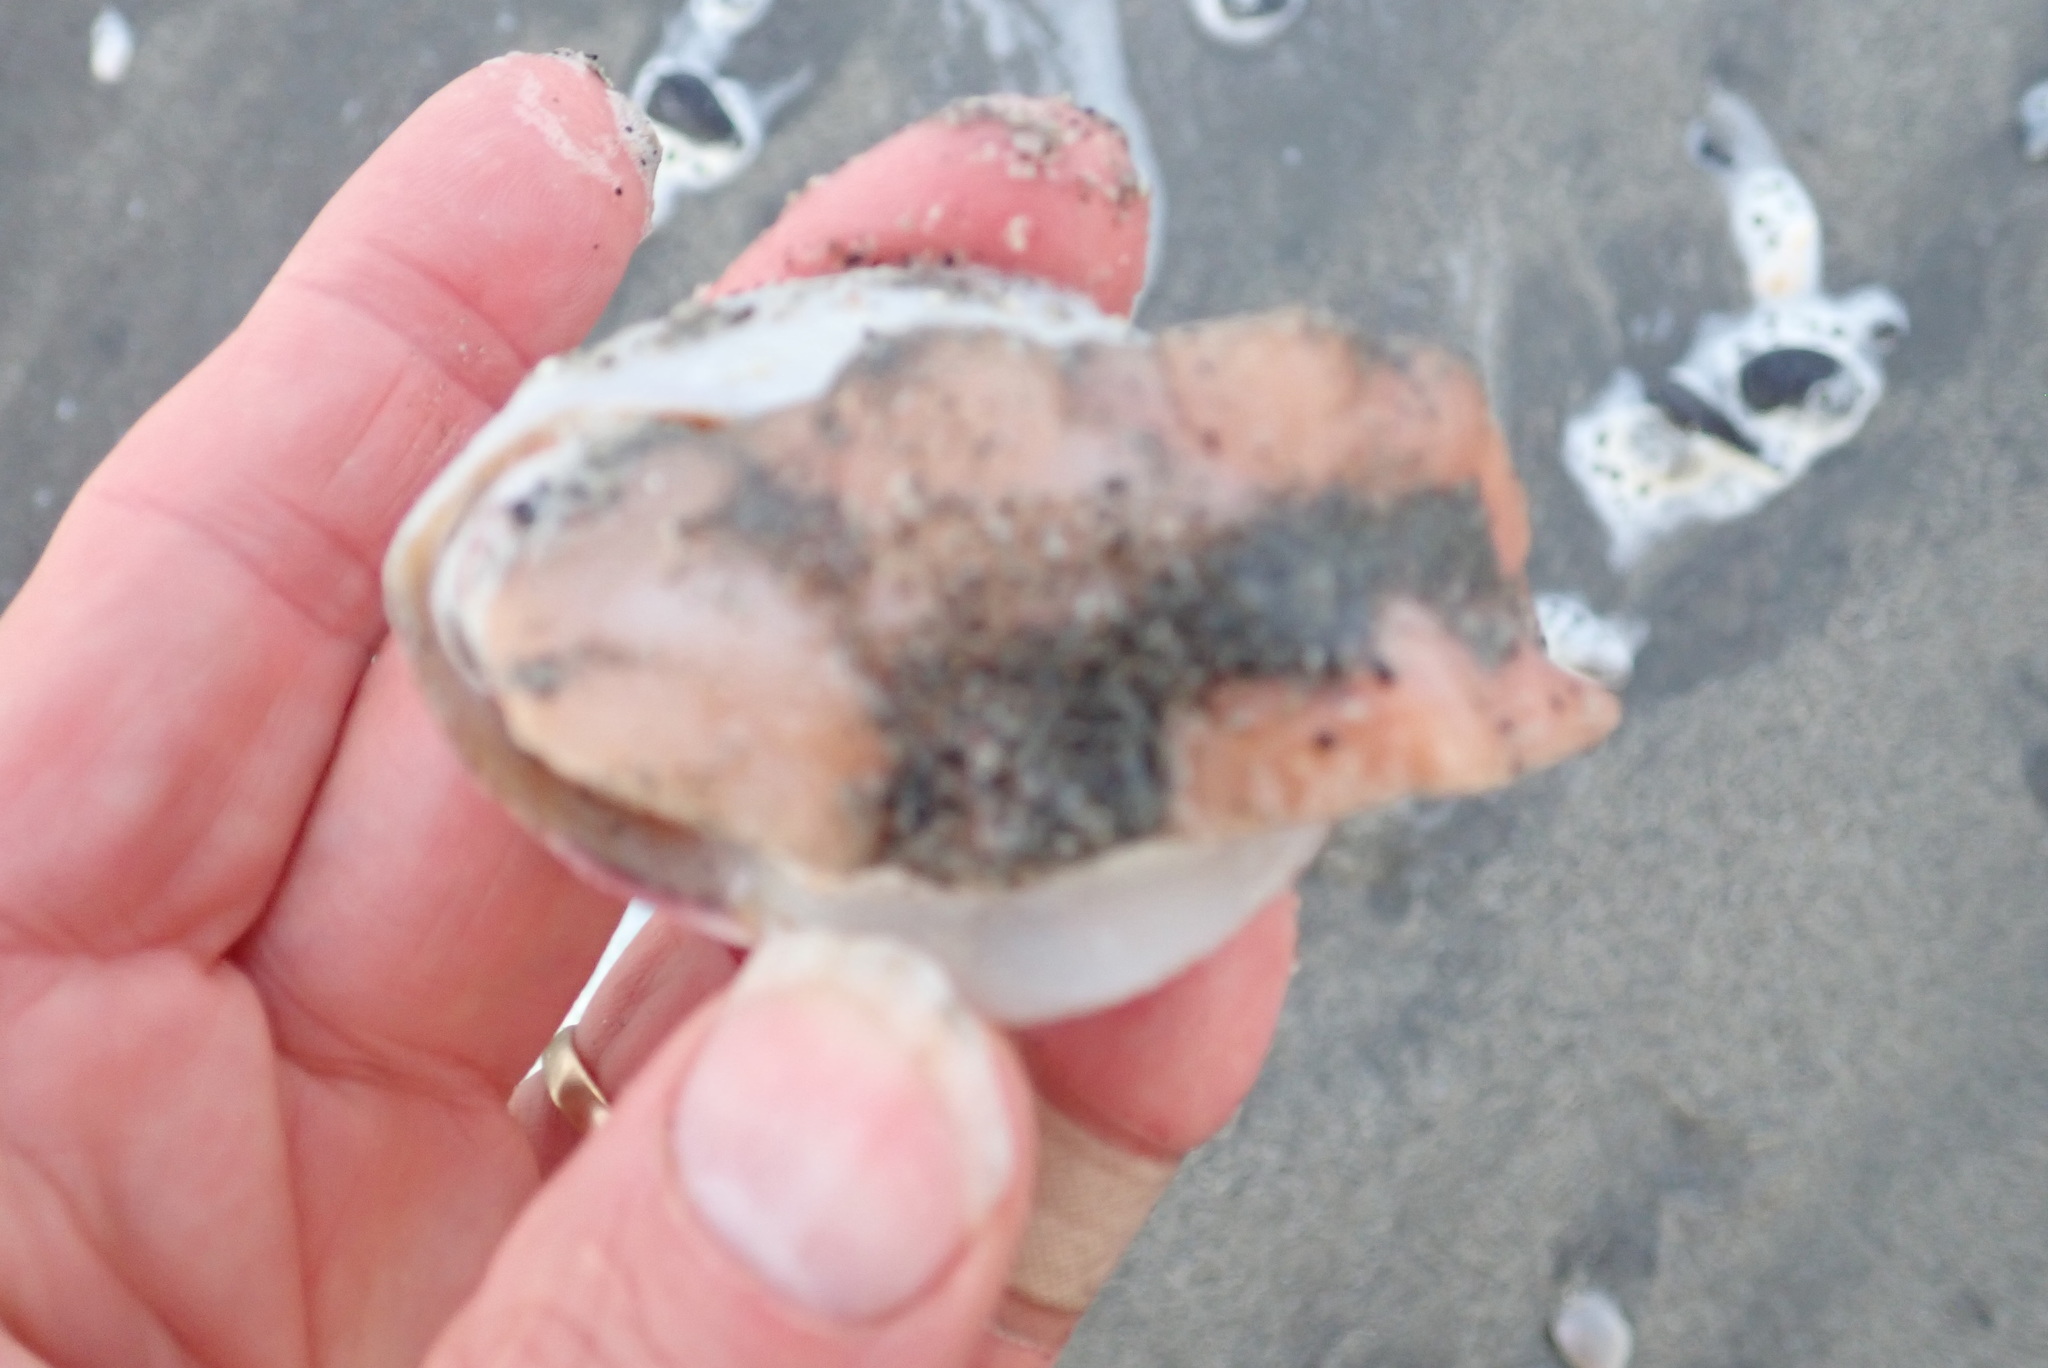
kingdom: Animalia
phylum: Mollusca
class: Gastropoda
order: Trochida
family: Calliostomatidae
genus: Maurea
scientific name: Maurea selecta
